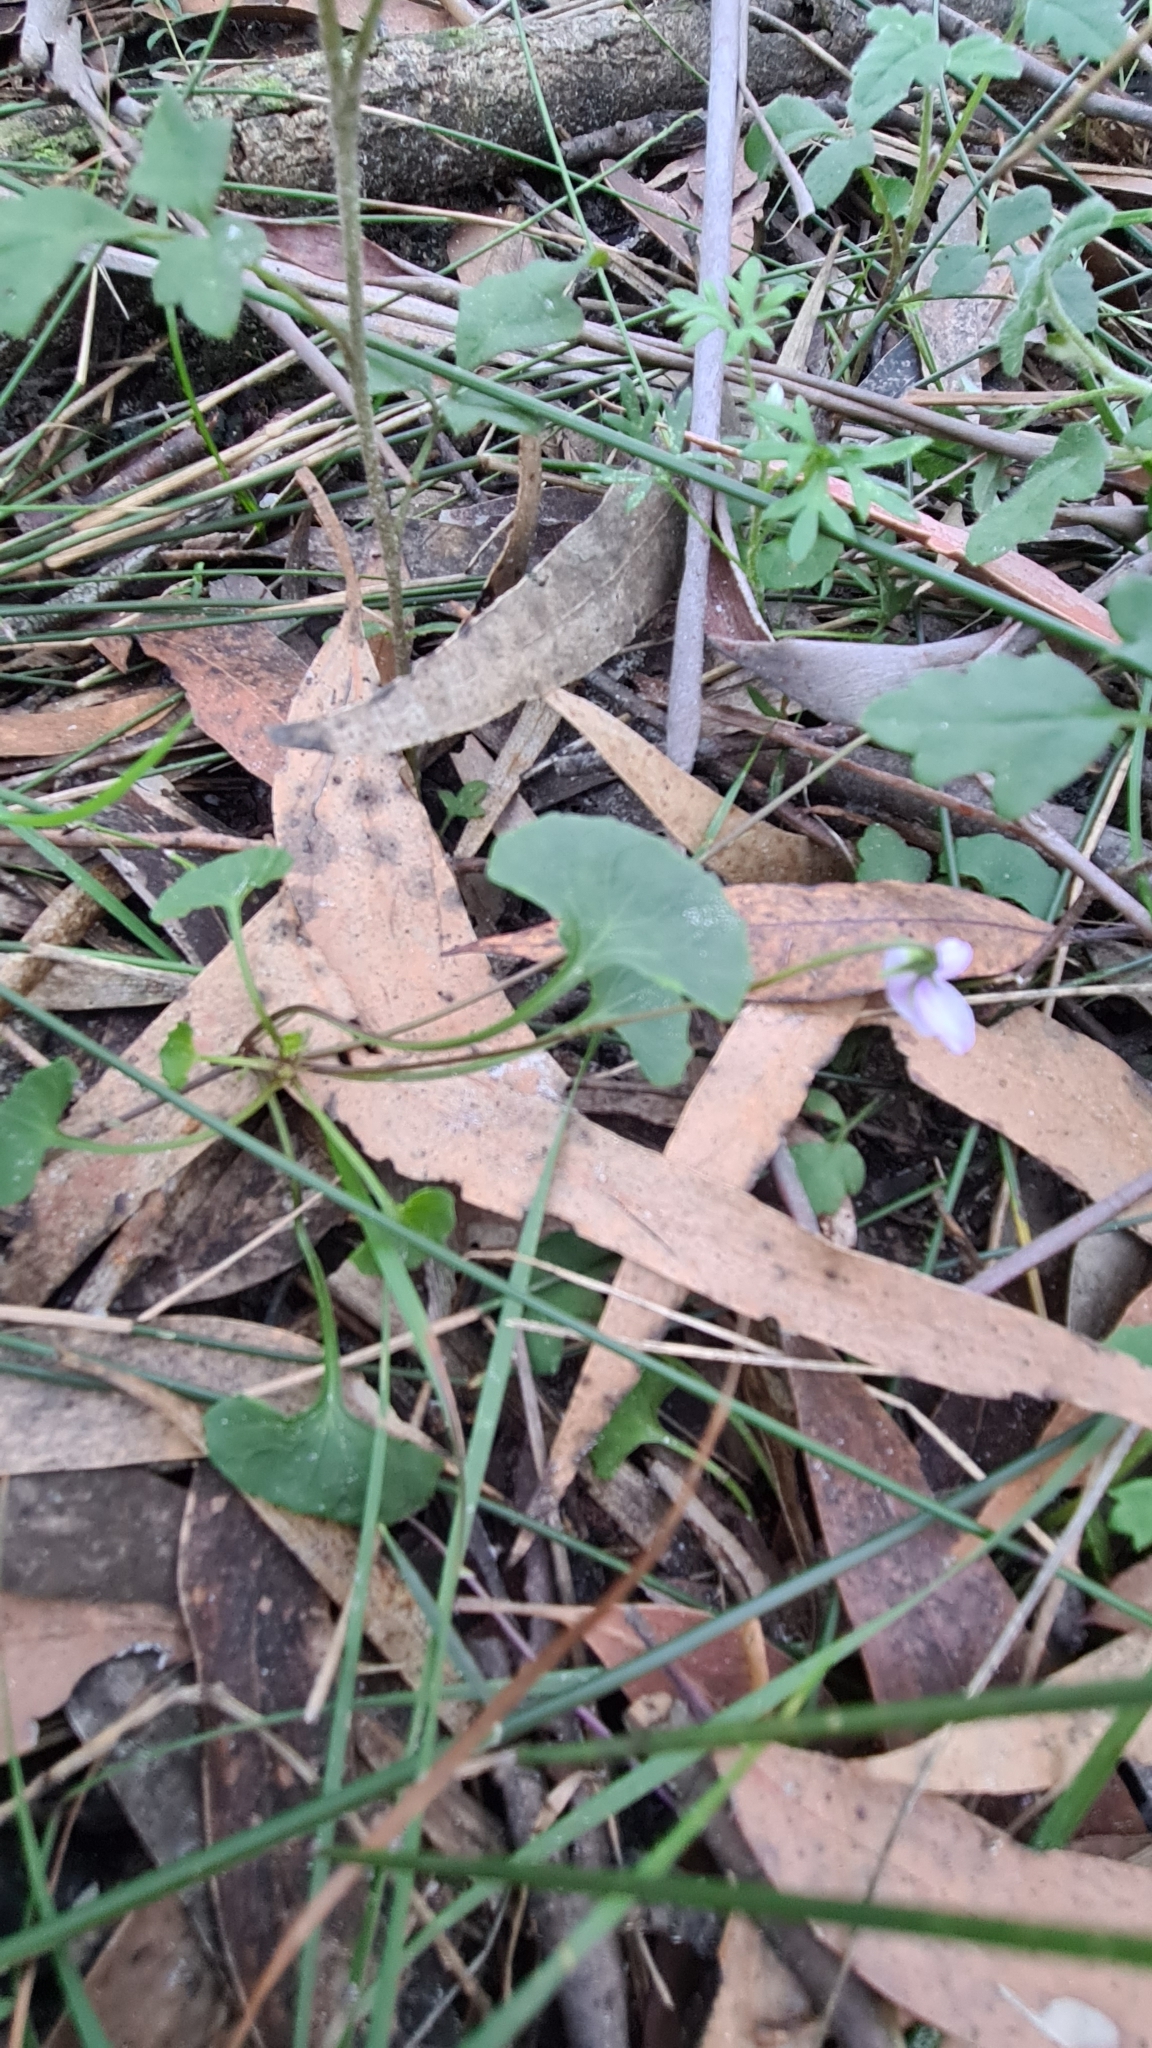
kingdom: Plantae
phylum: Tracheophyta
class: Magnoliopsida
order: Malpighiales
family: Violaceae
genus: Viola
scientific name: Viola silicestris
